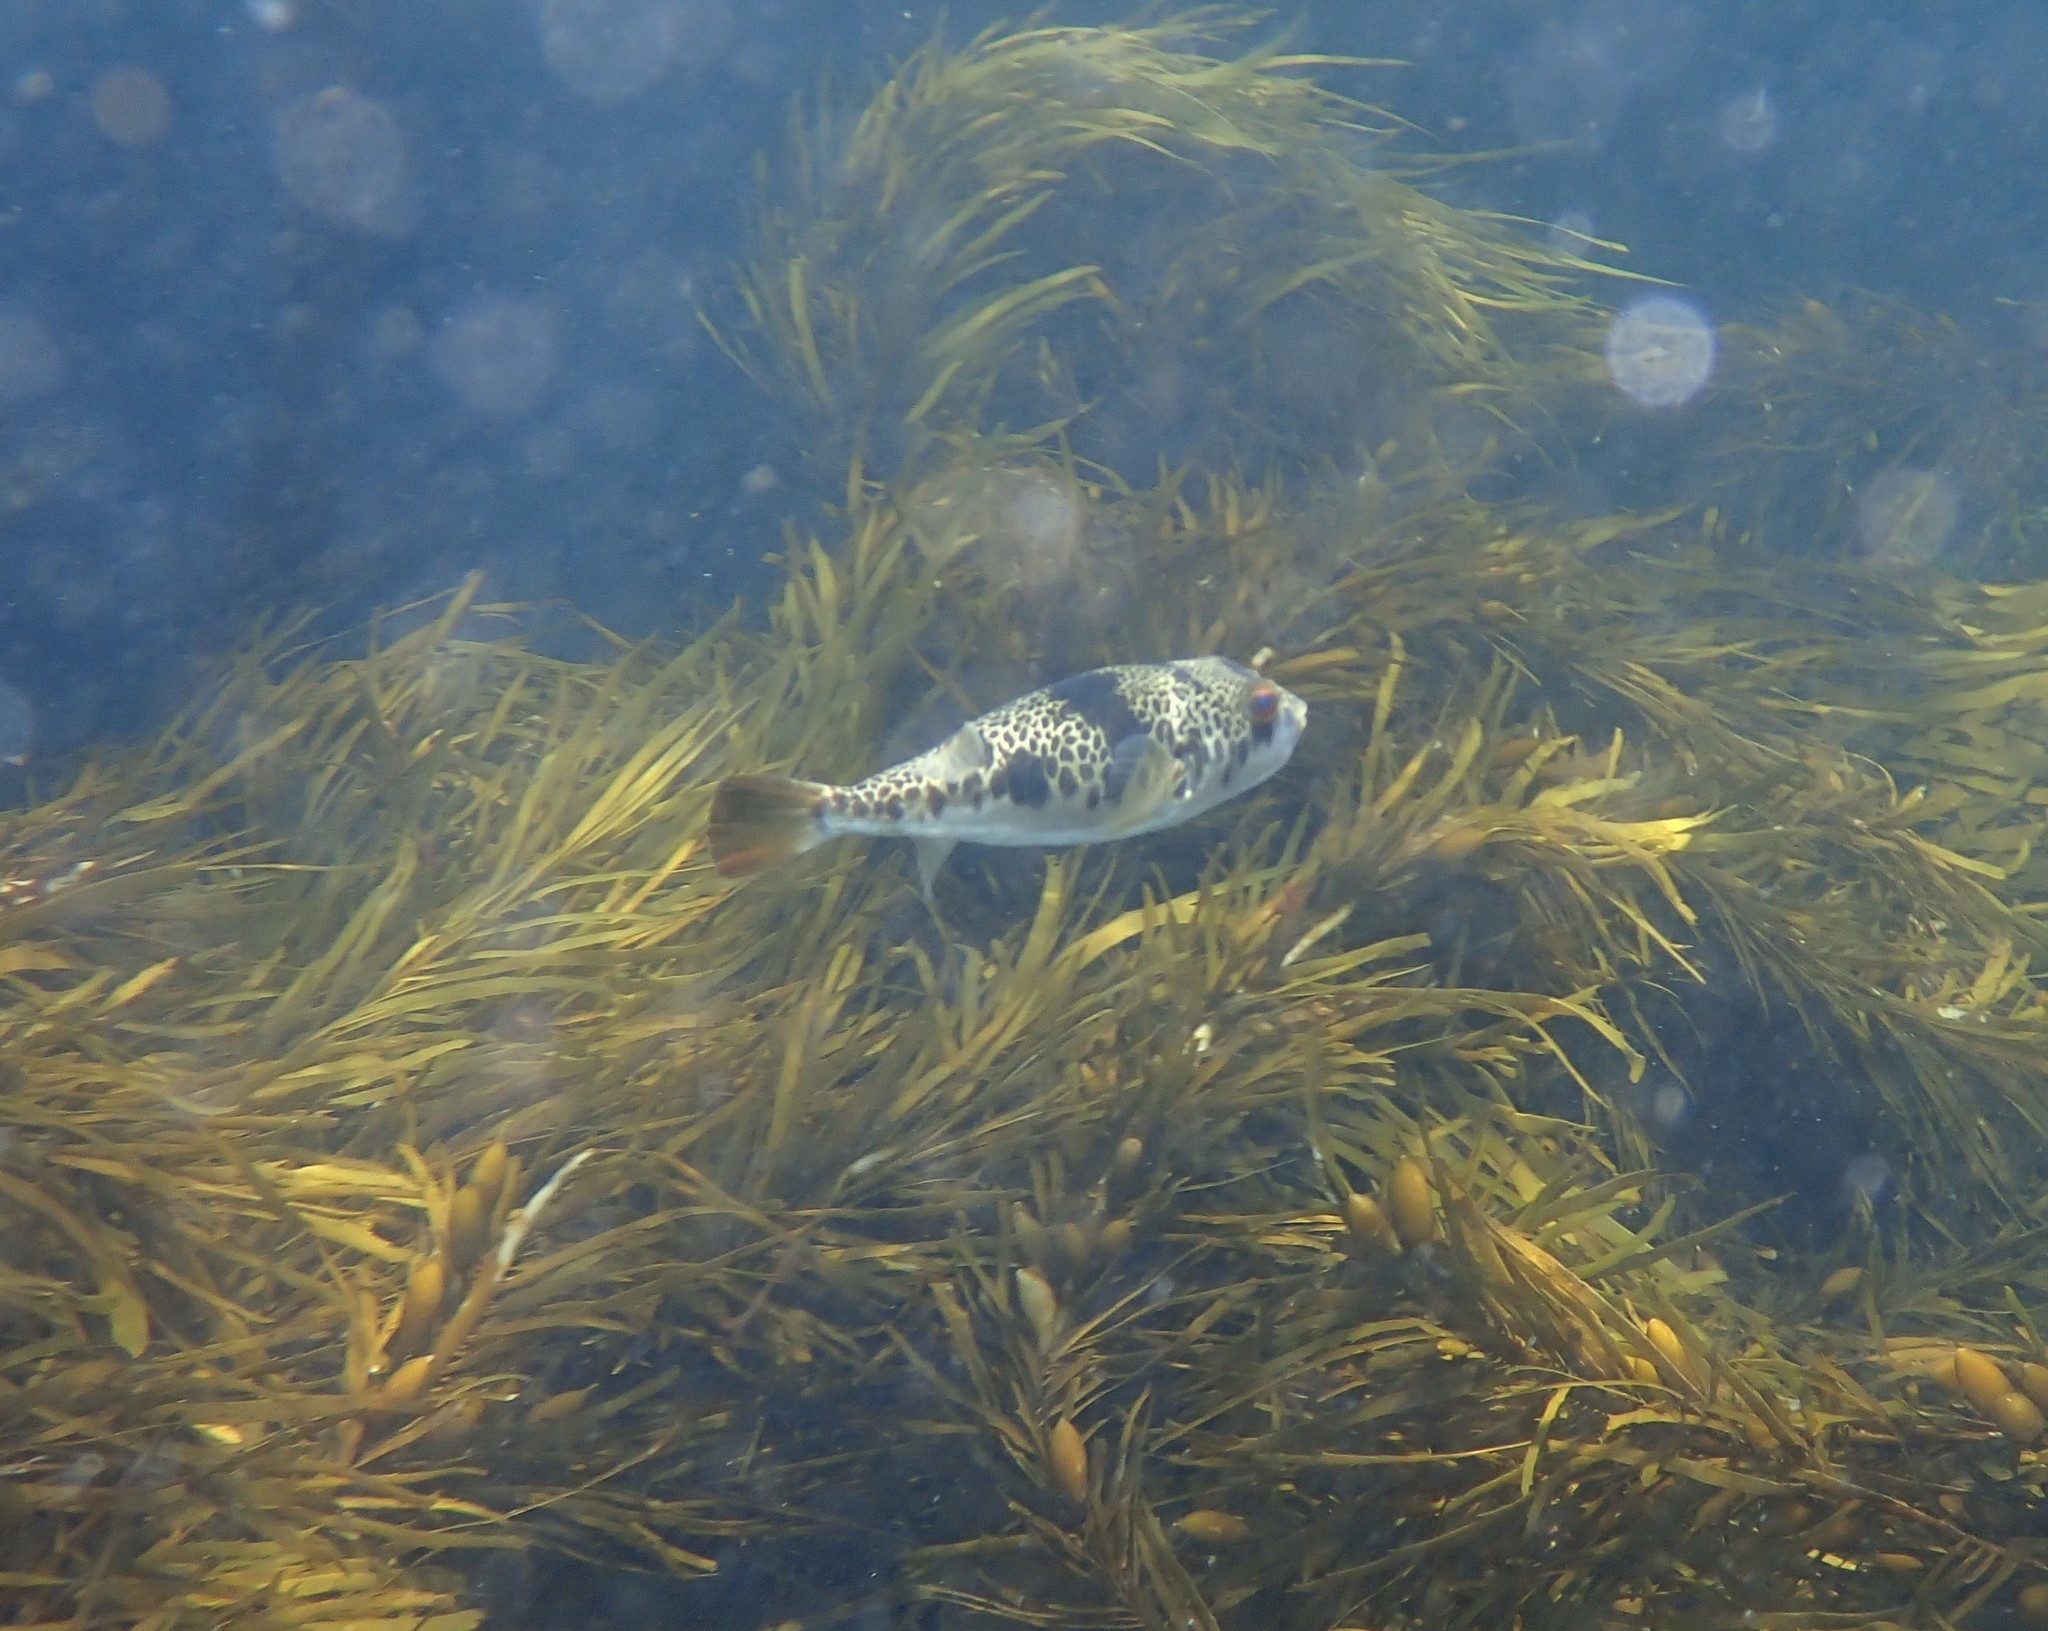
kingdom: Animalia
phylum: Chordata
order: Tetraodontiformes
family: Tetraodontidae
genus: Tetractenos
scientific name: Tetractenos glaber
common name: Smooth toadfish
